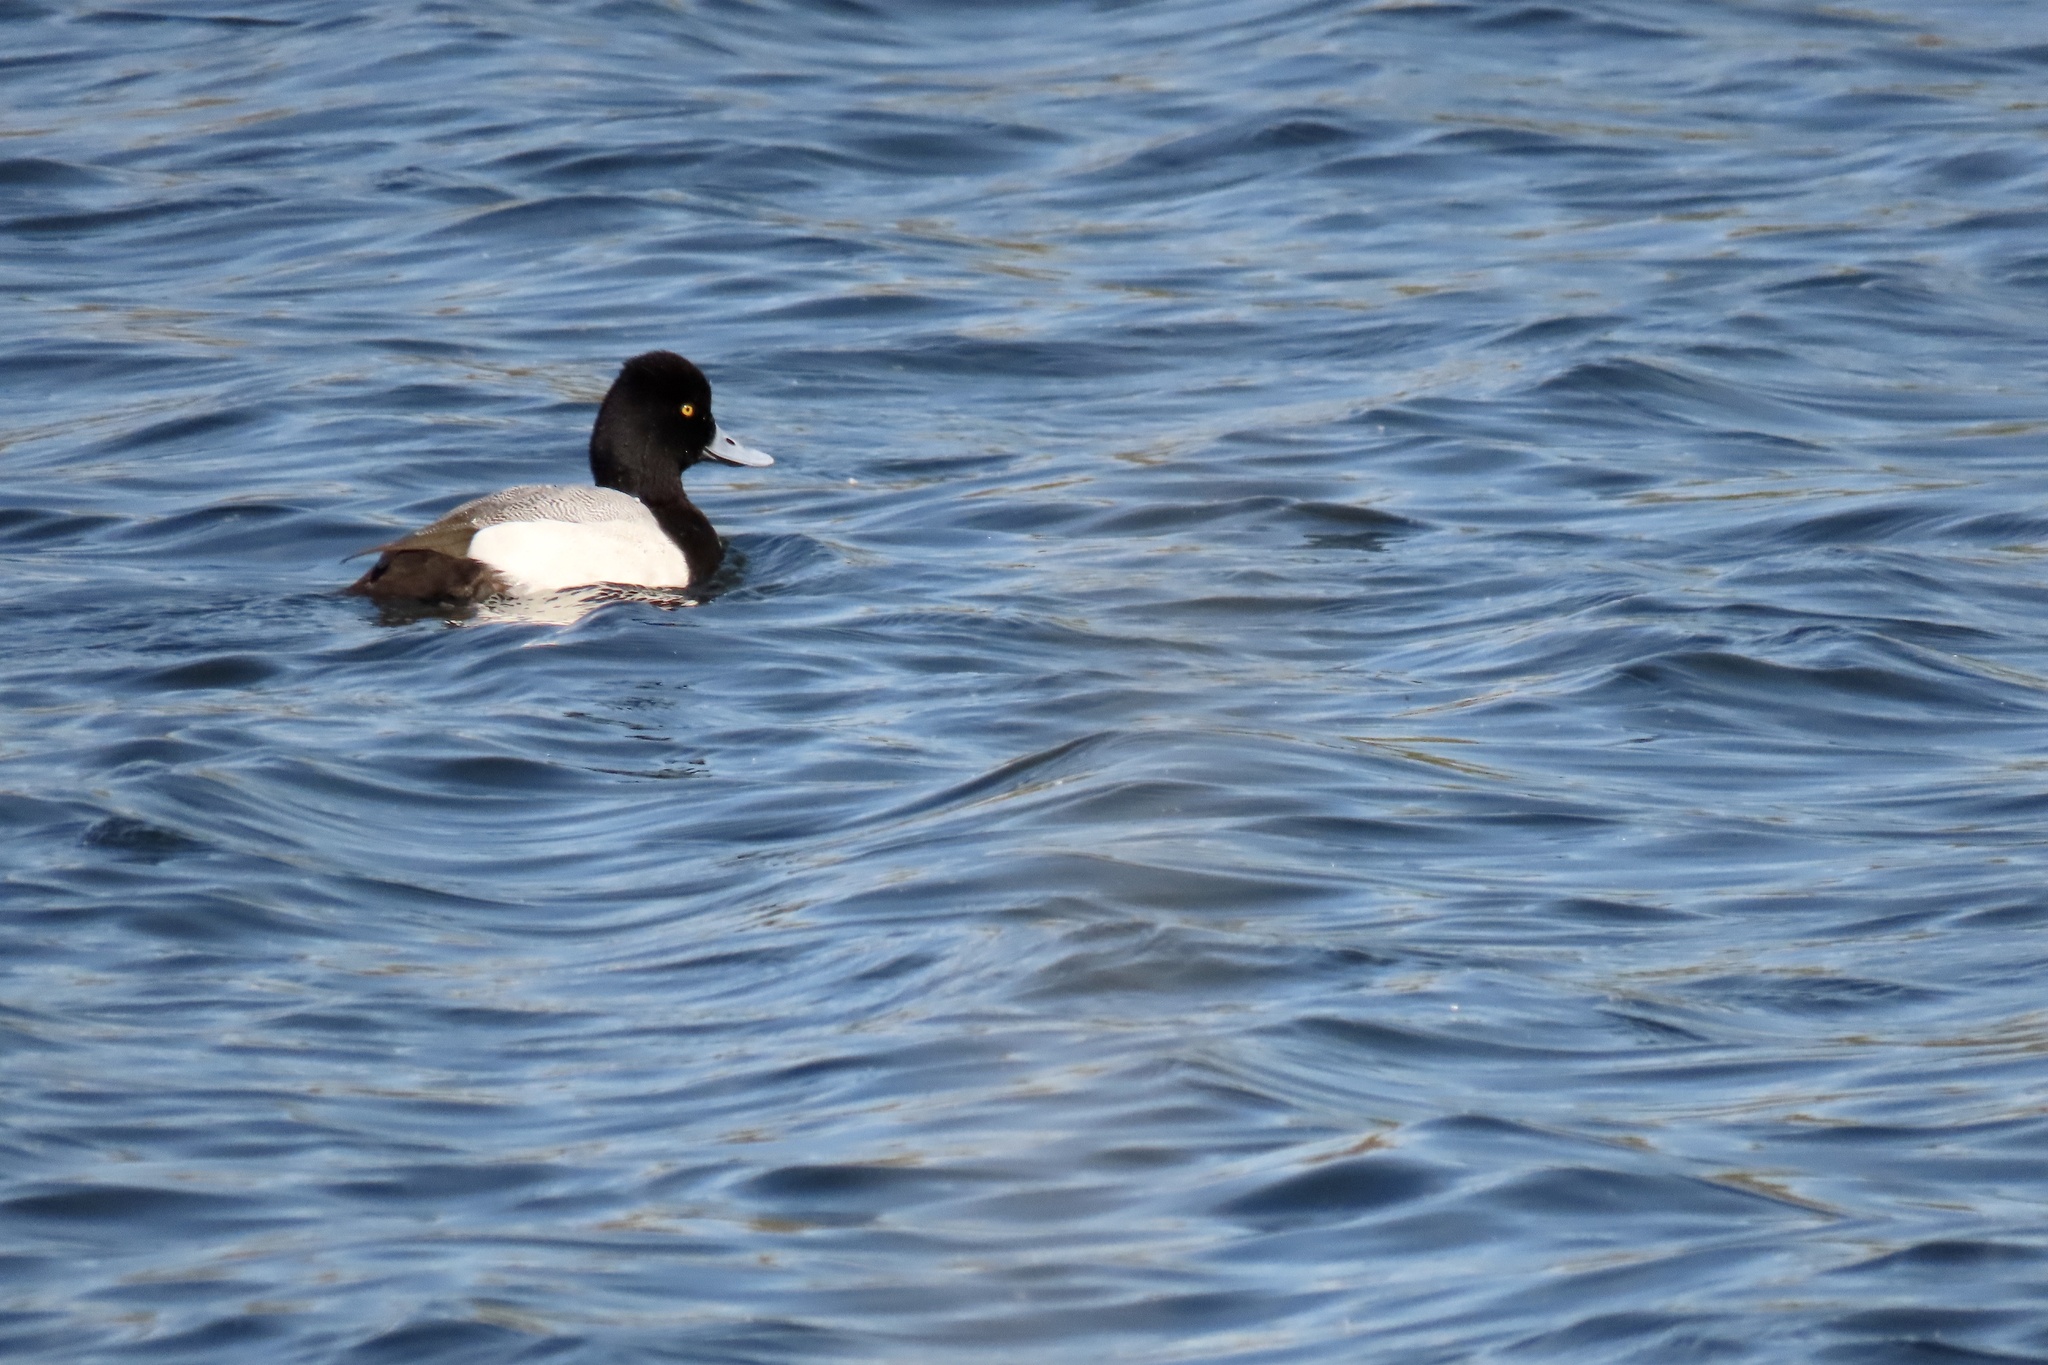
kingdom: Animalia
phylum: Chordata
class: Aves
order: Anseriformes
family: Anatidae
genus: Aythya
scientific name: Aythya affinis
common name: Lesser scaup
